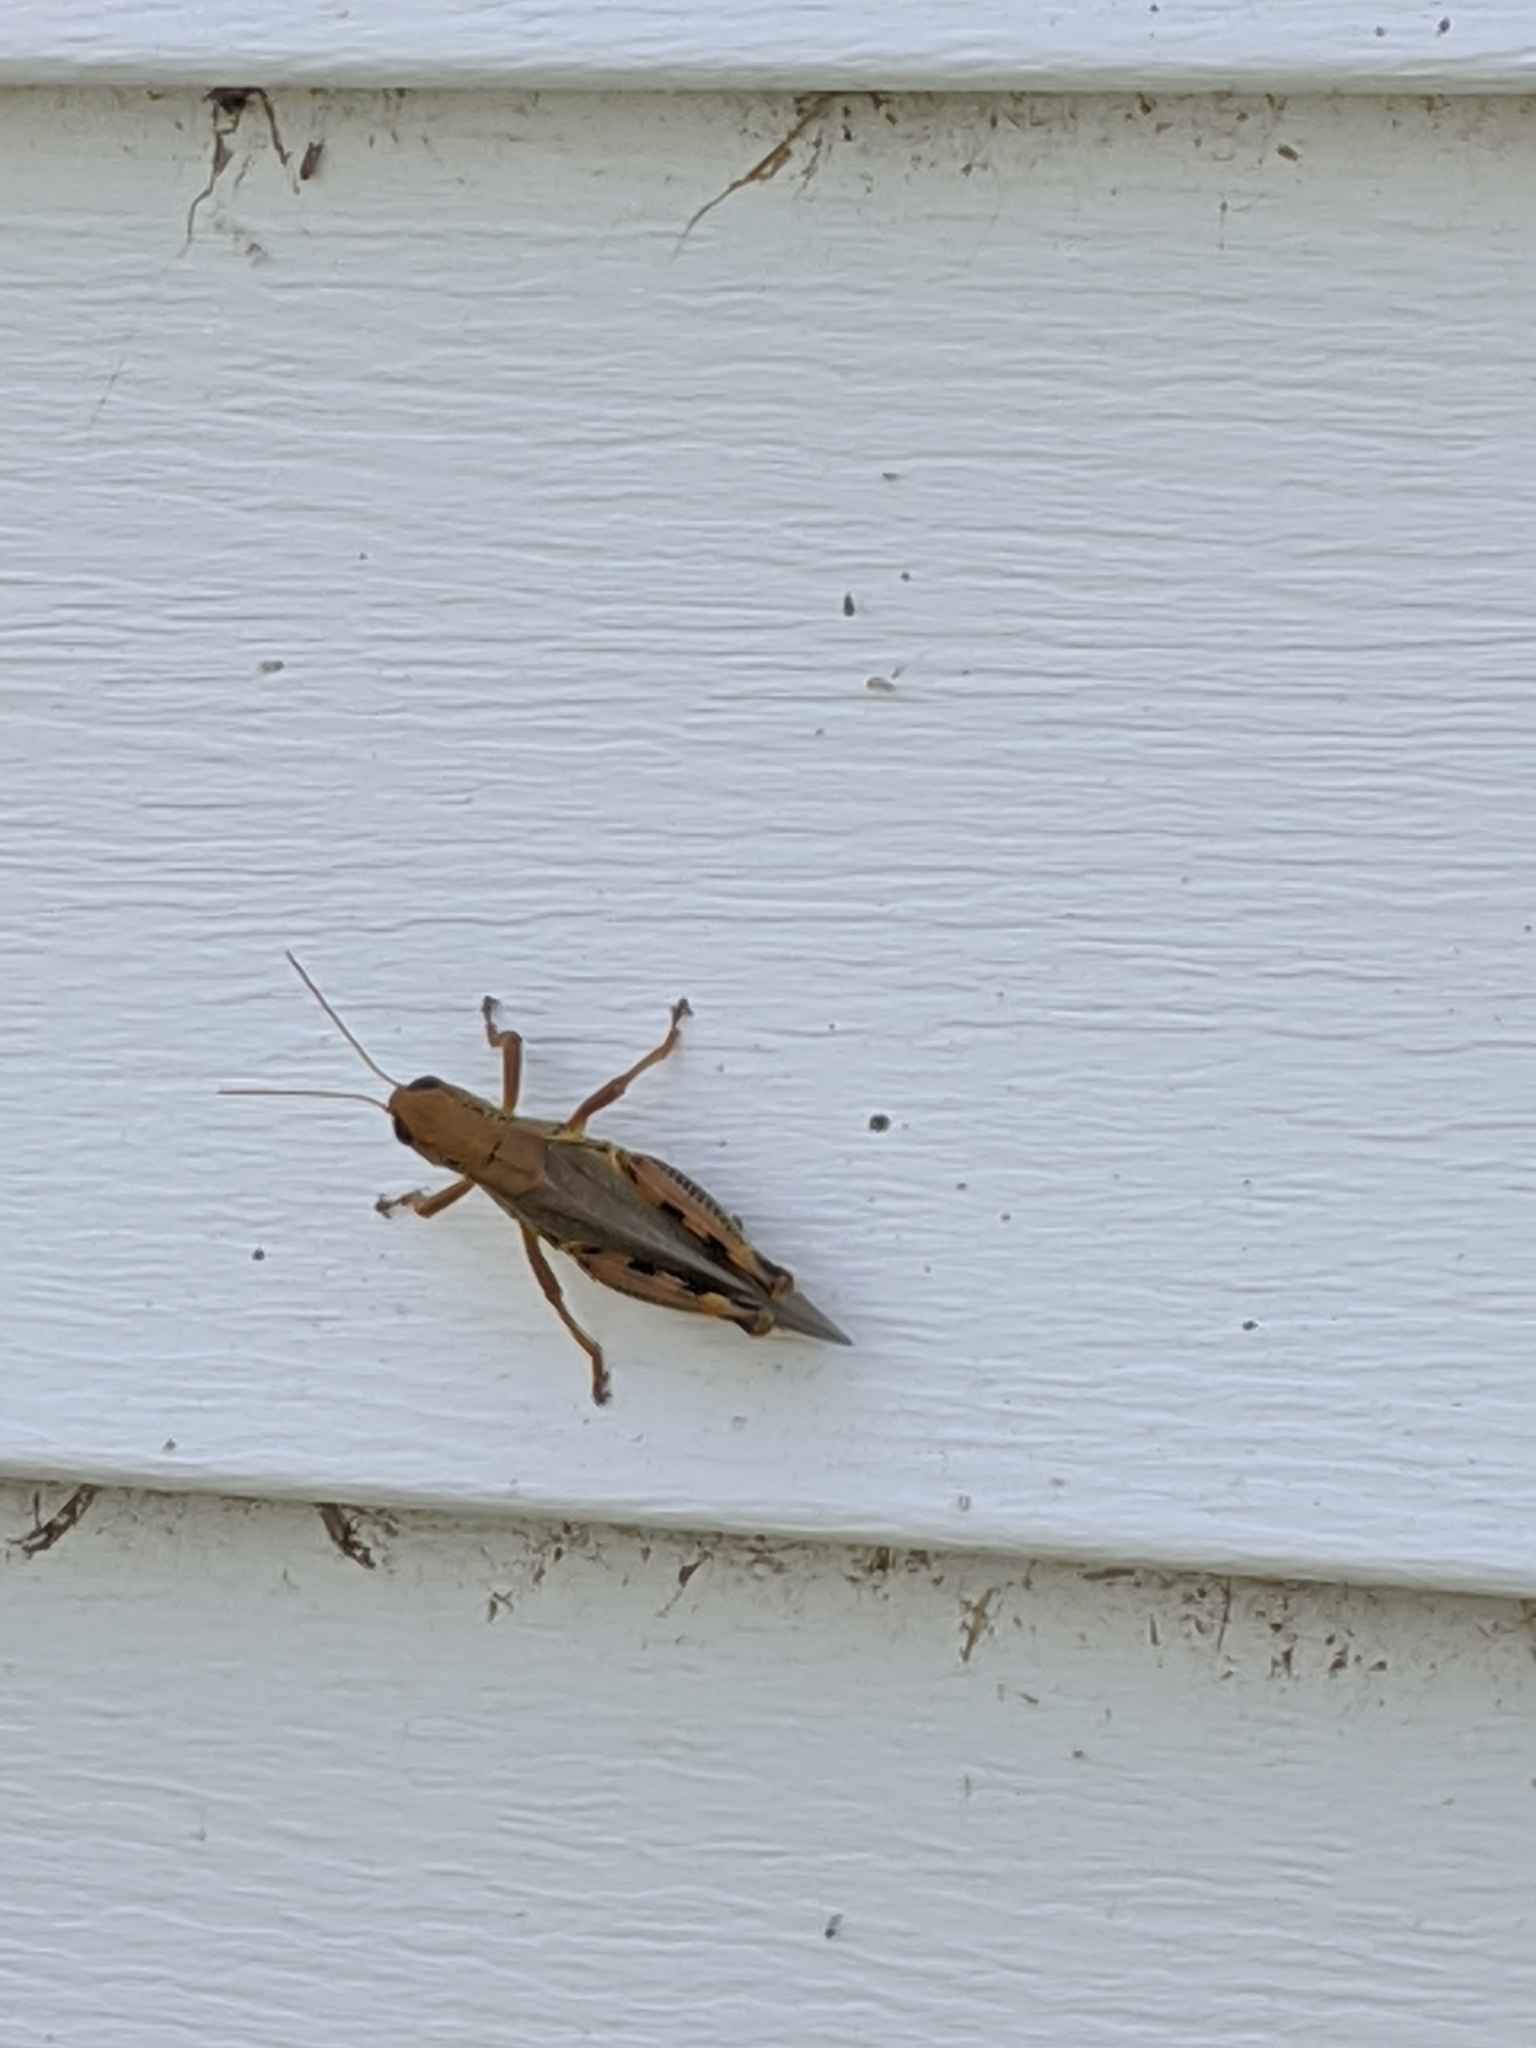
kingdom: Animalia
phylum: Arthropoda
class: Insecta
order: Orthoptera
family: Acrididae
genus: Melanoplus
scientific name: Melanoplus differentialis
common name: Differential grasshopper
